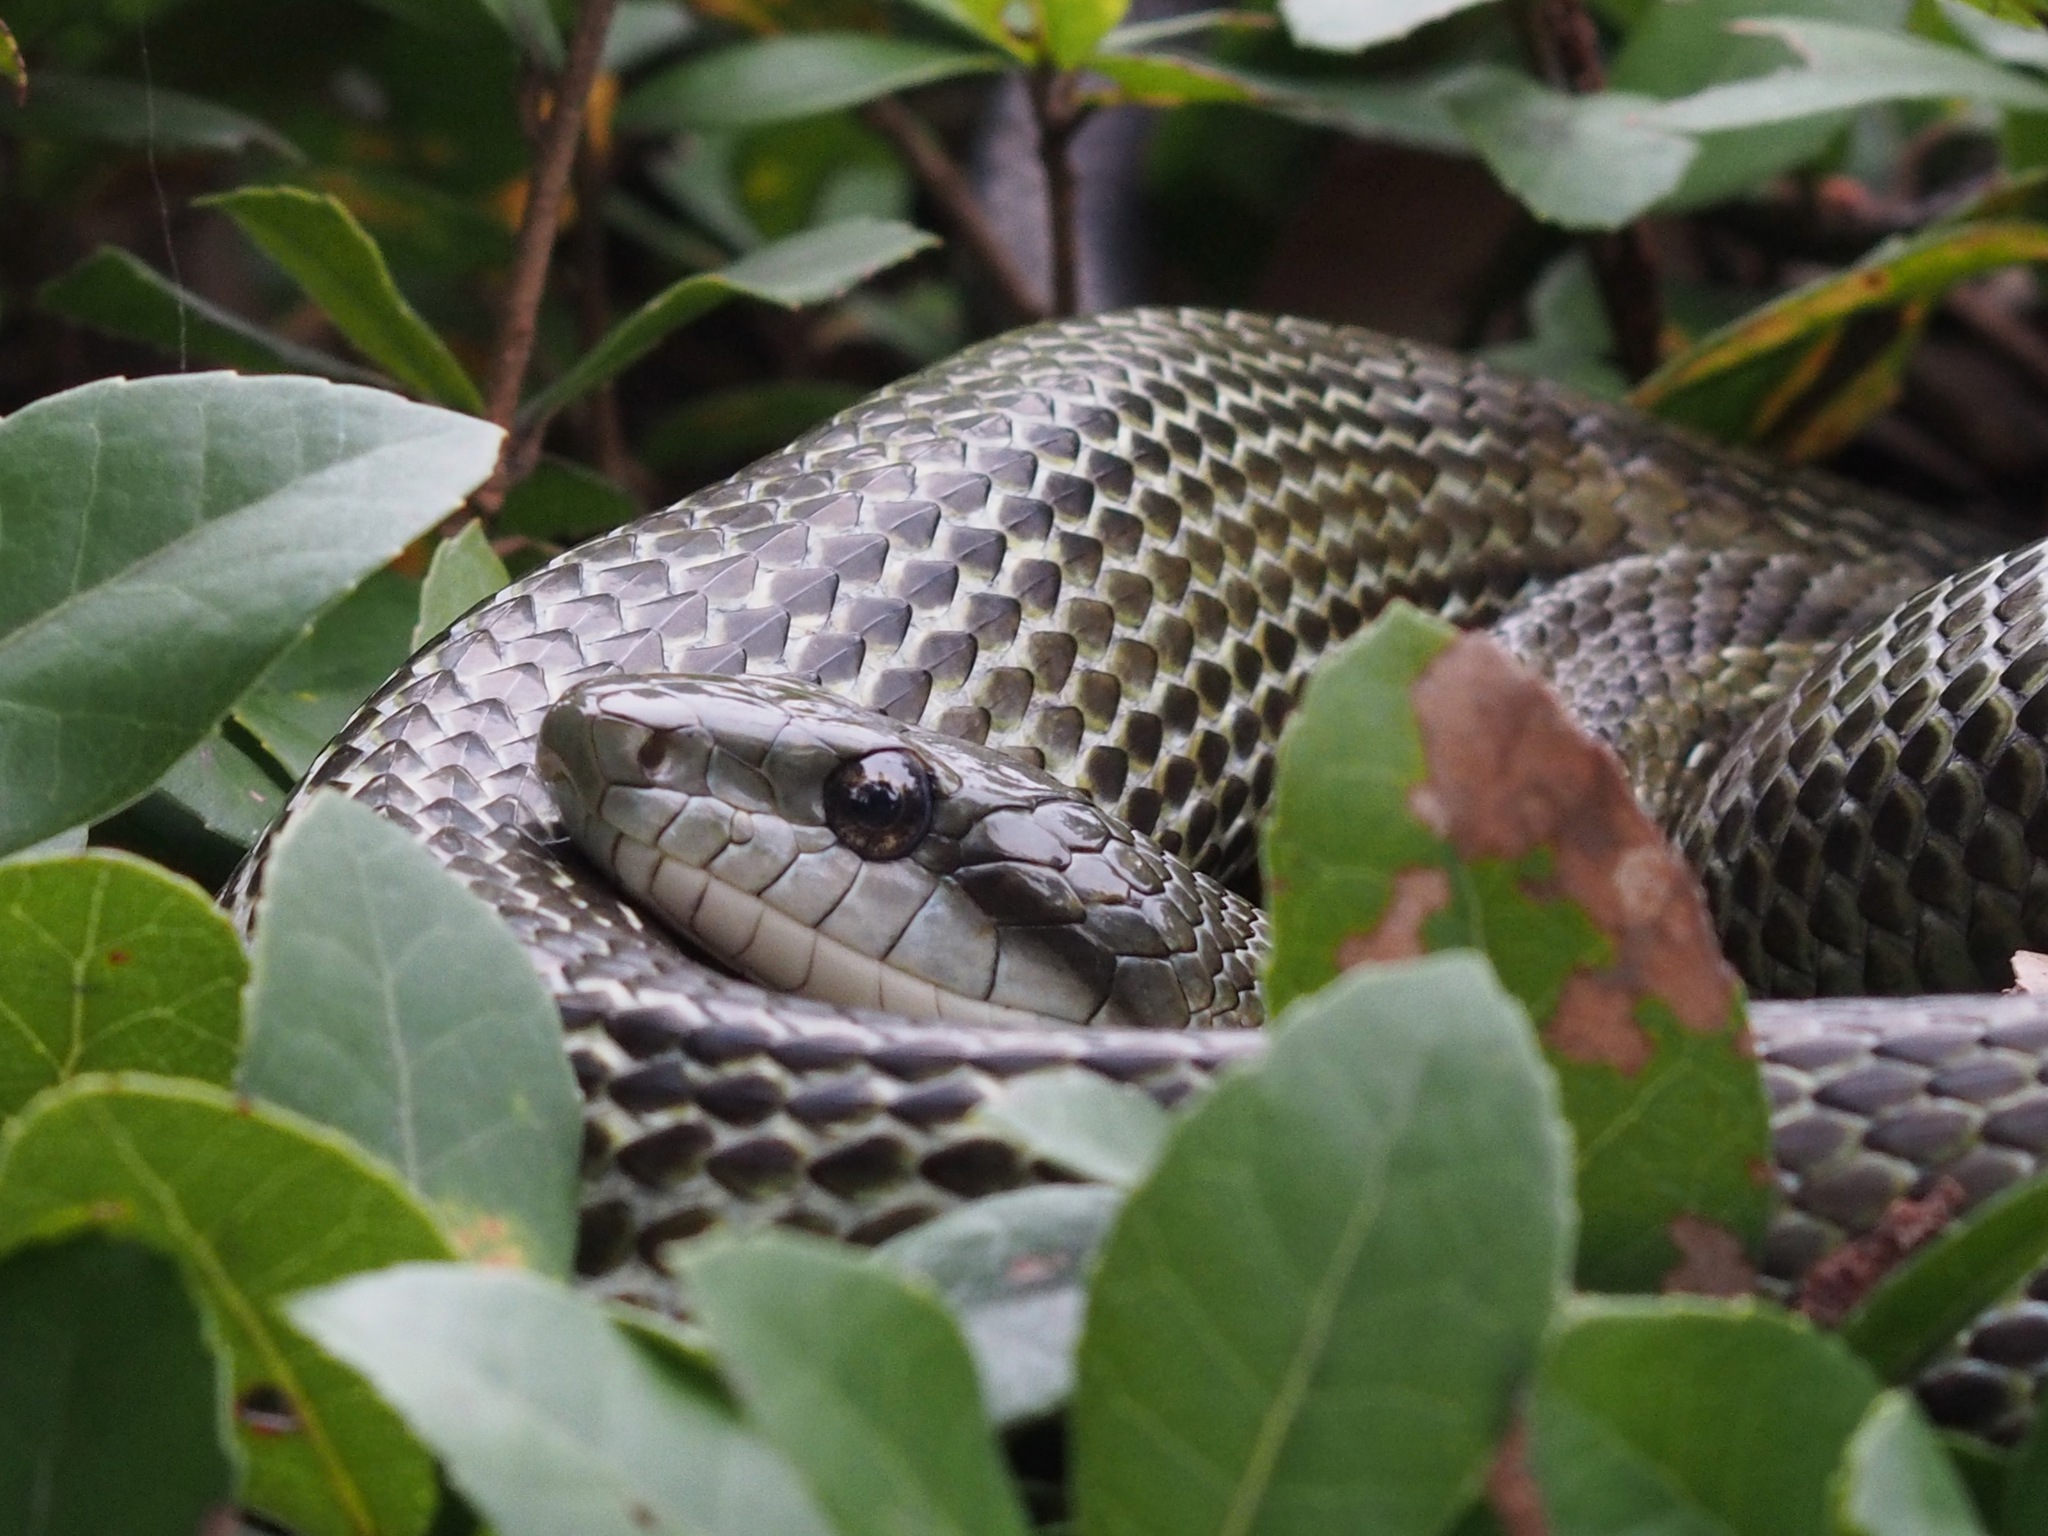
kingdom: Animalia
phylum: Chordata
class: Squamata
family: Colubridae
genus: Elaphe
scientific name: Elaphe climacophora
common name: Japanese ratsnake
